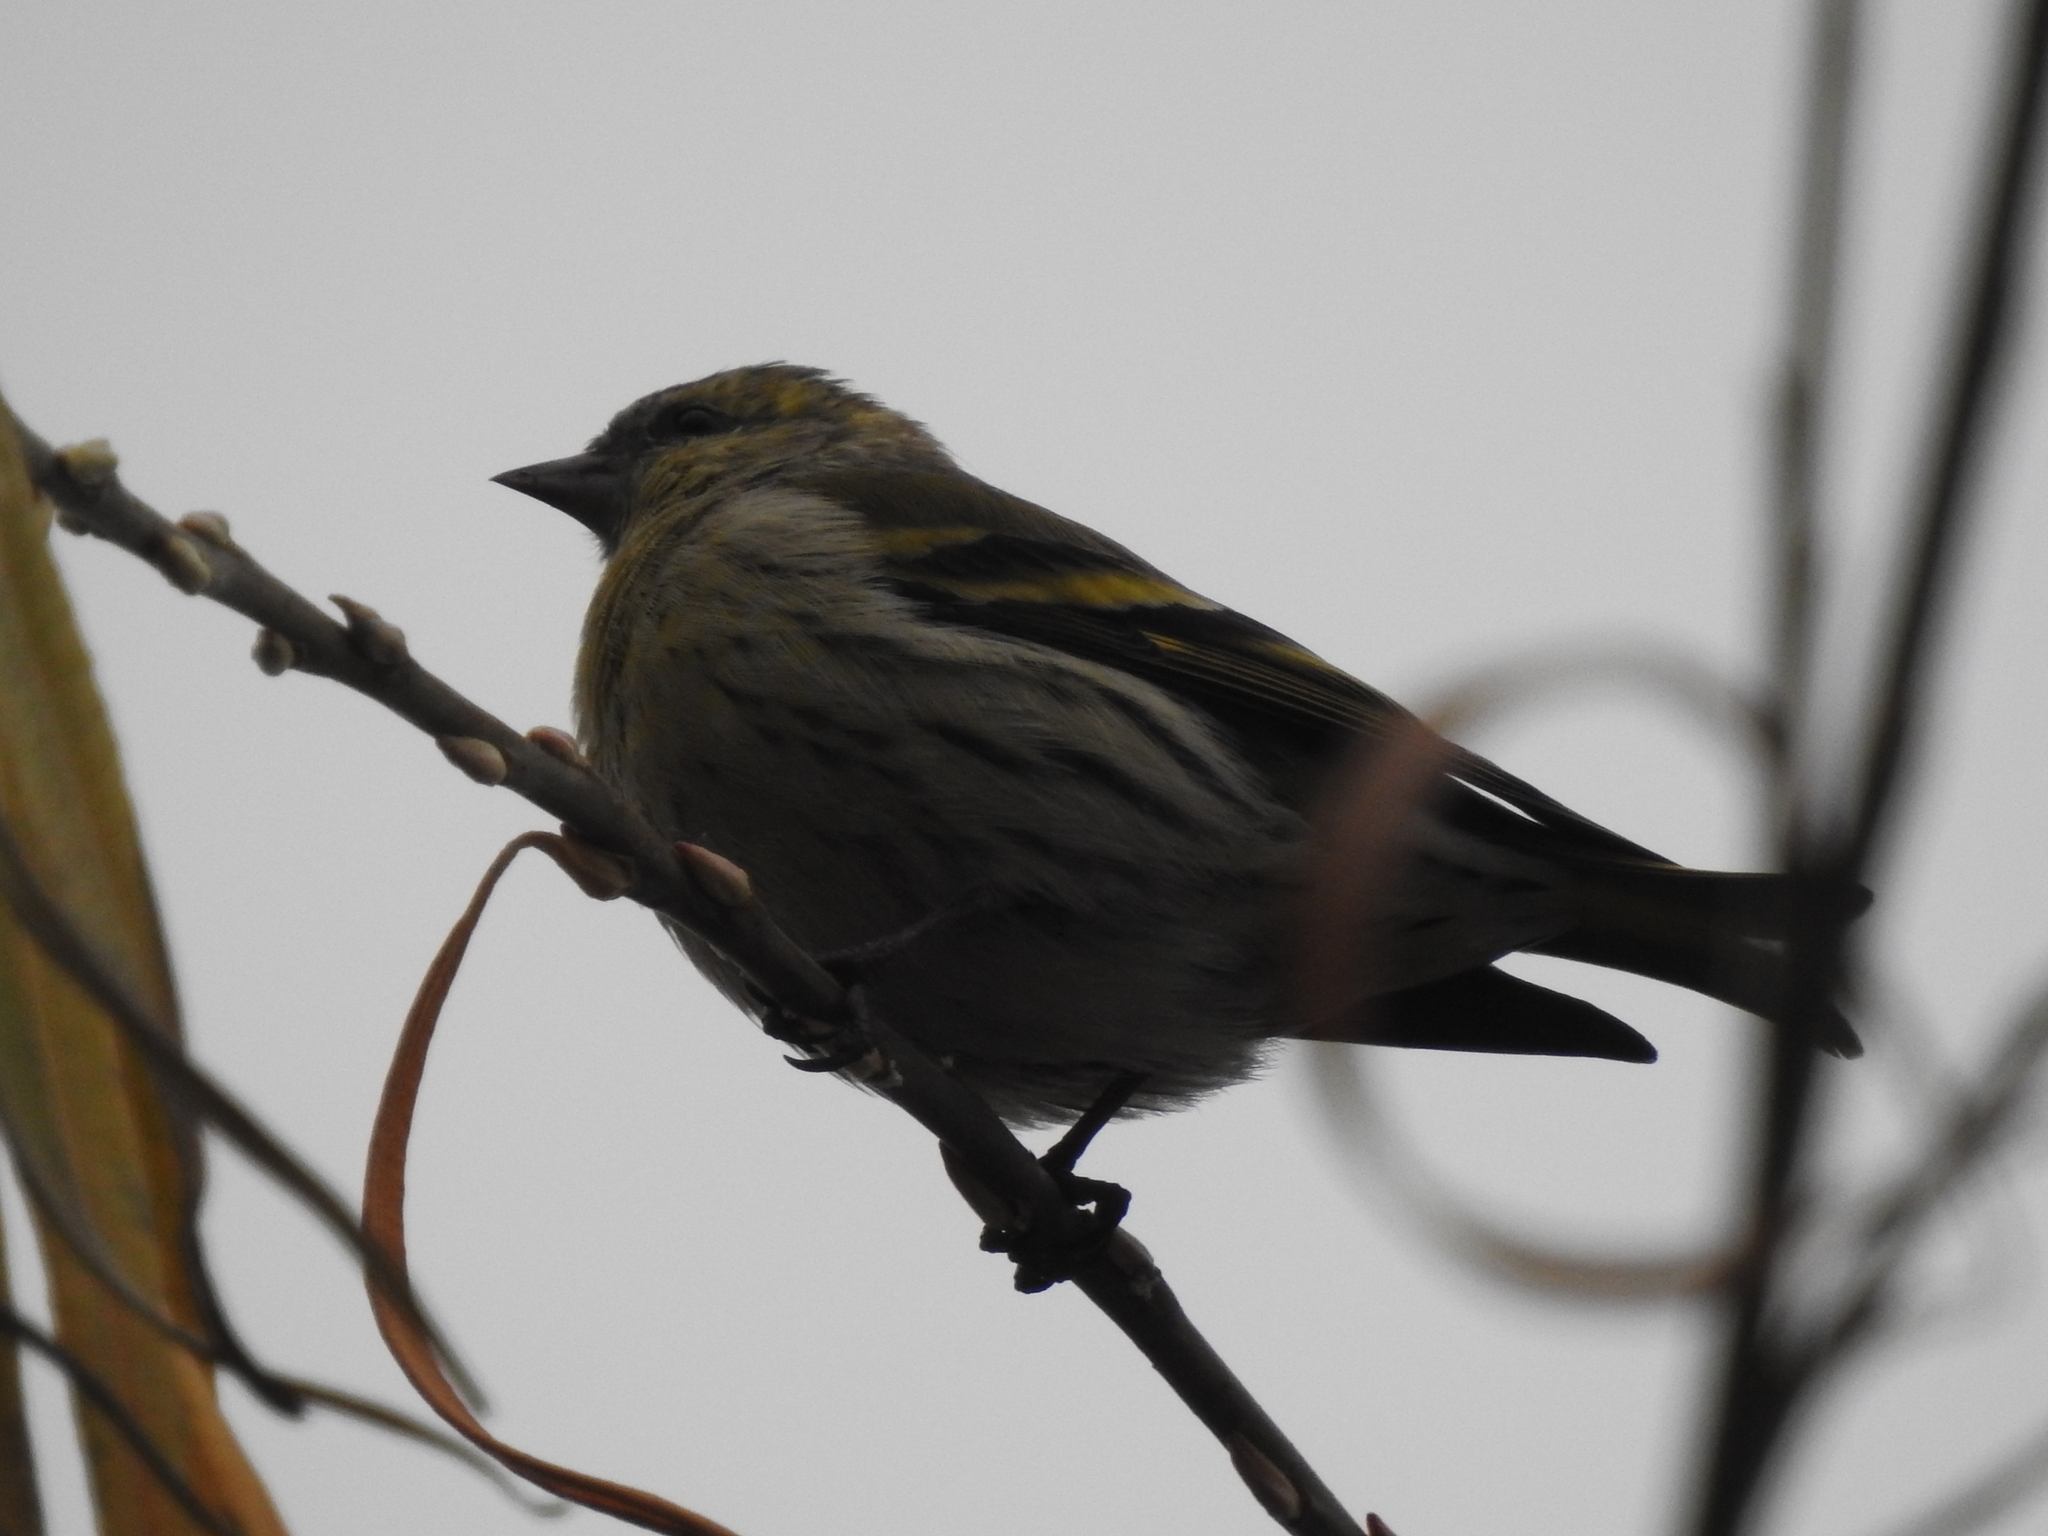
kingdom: Animalia
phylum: Chordata
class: Aves
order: Passeriformes
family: Fringillidae
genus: Spinus
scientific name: Spinus spinus
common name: Eurasian siskin
